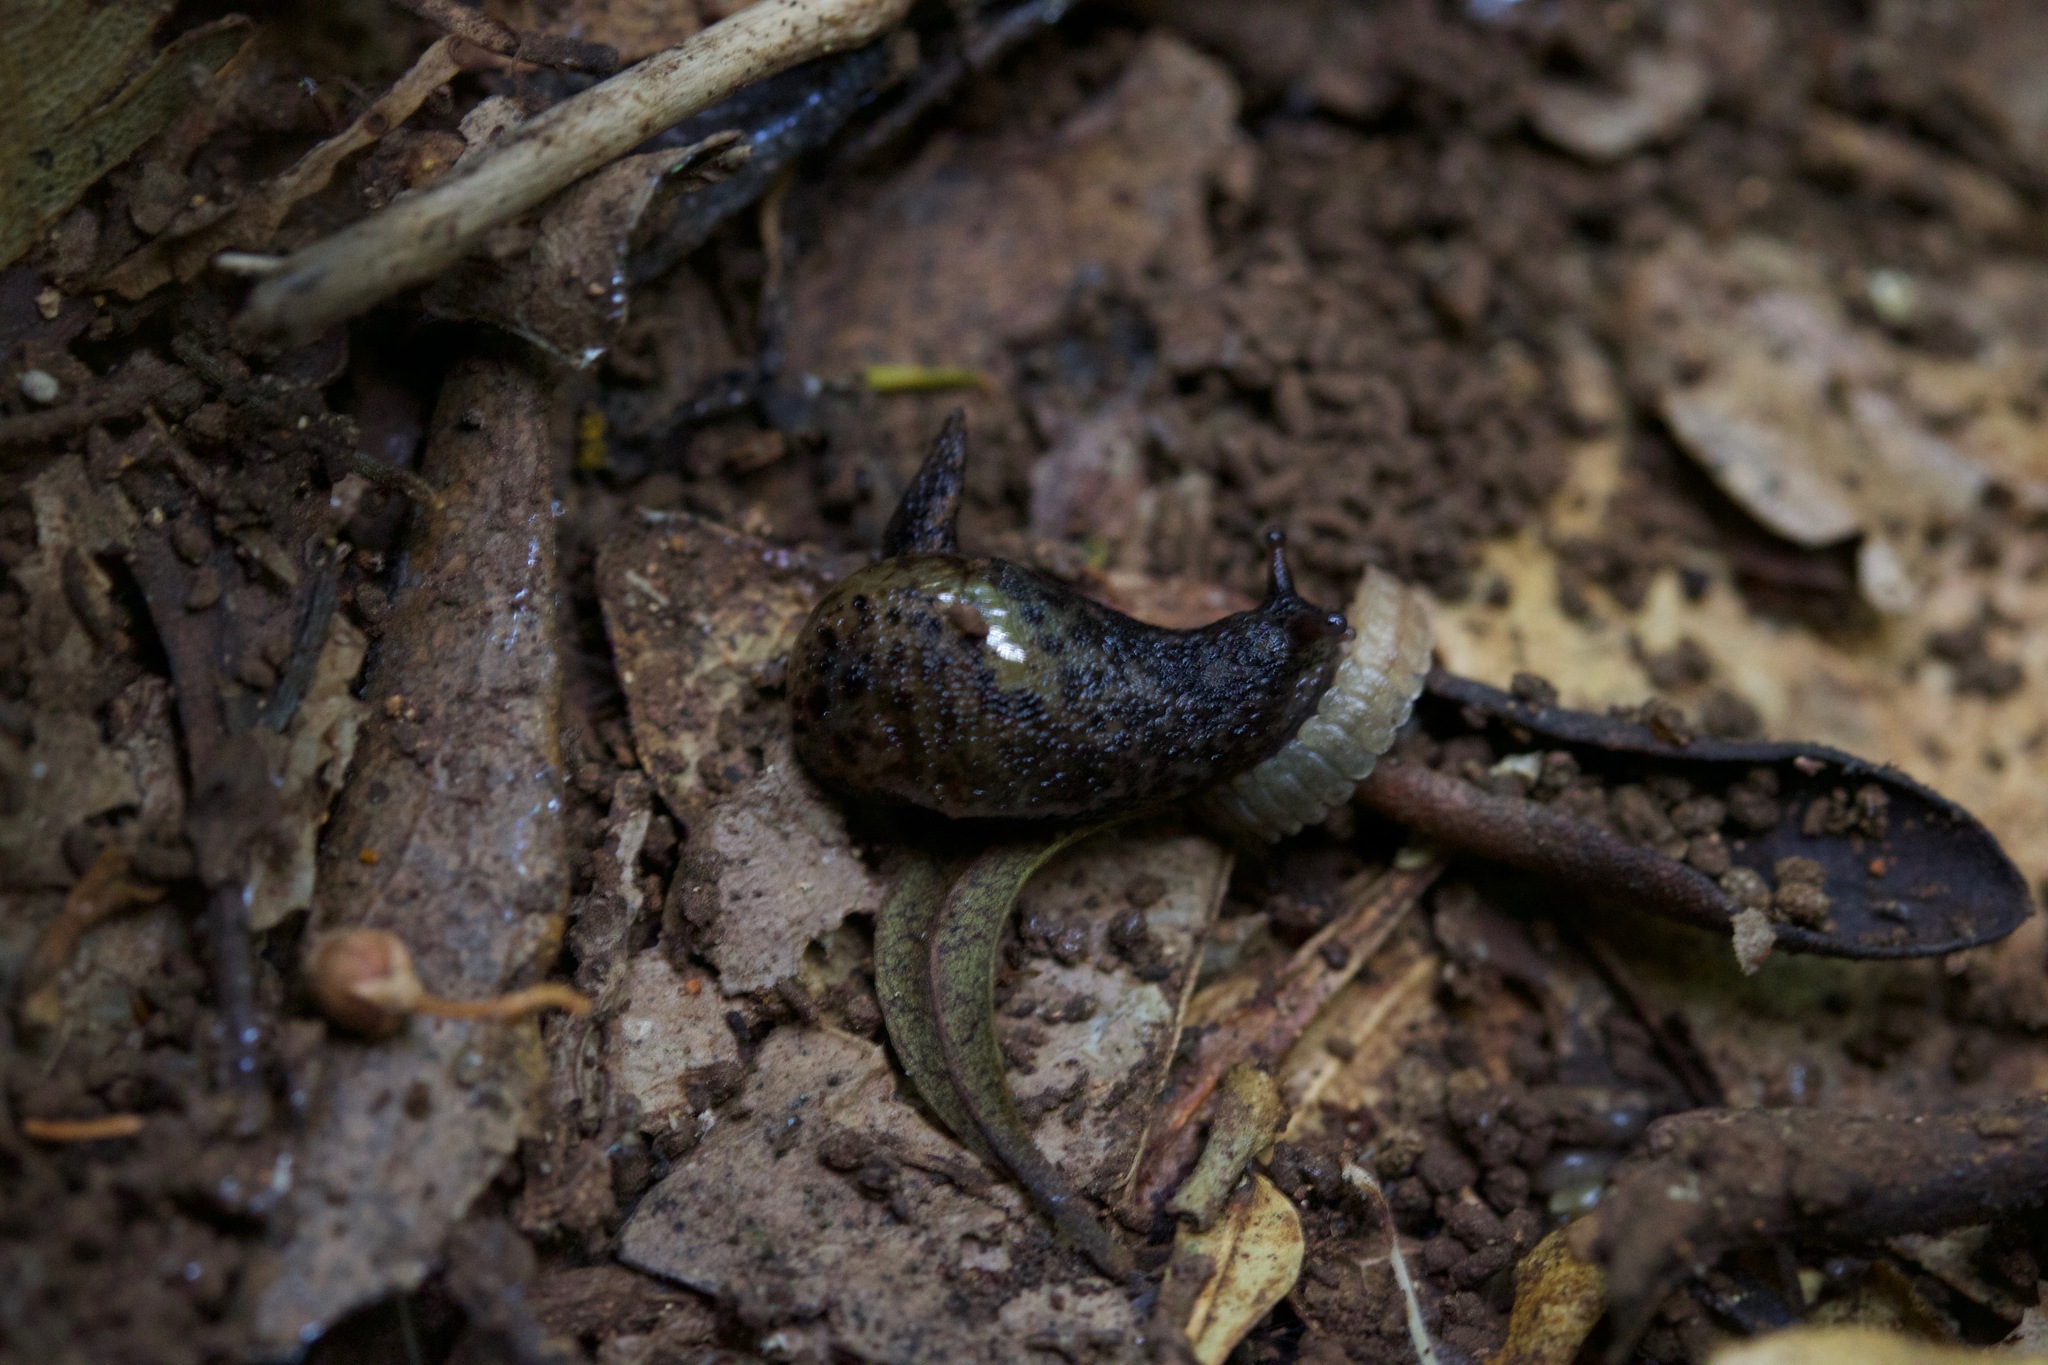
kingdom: Animalia
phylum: Mollusca
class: Gastropoda
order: Stylommatophora
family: Vitrinidae
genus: Insulivitrina
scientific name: Insulivitrina lamarckii
